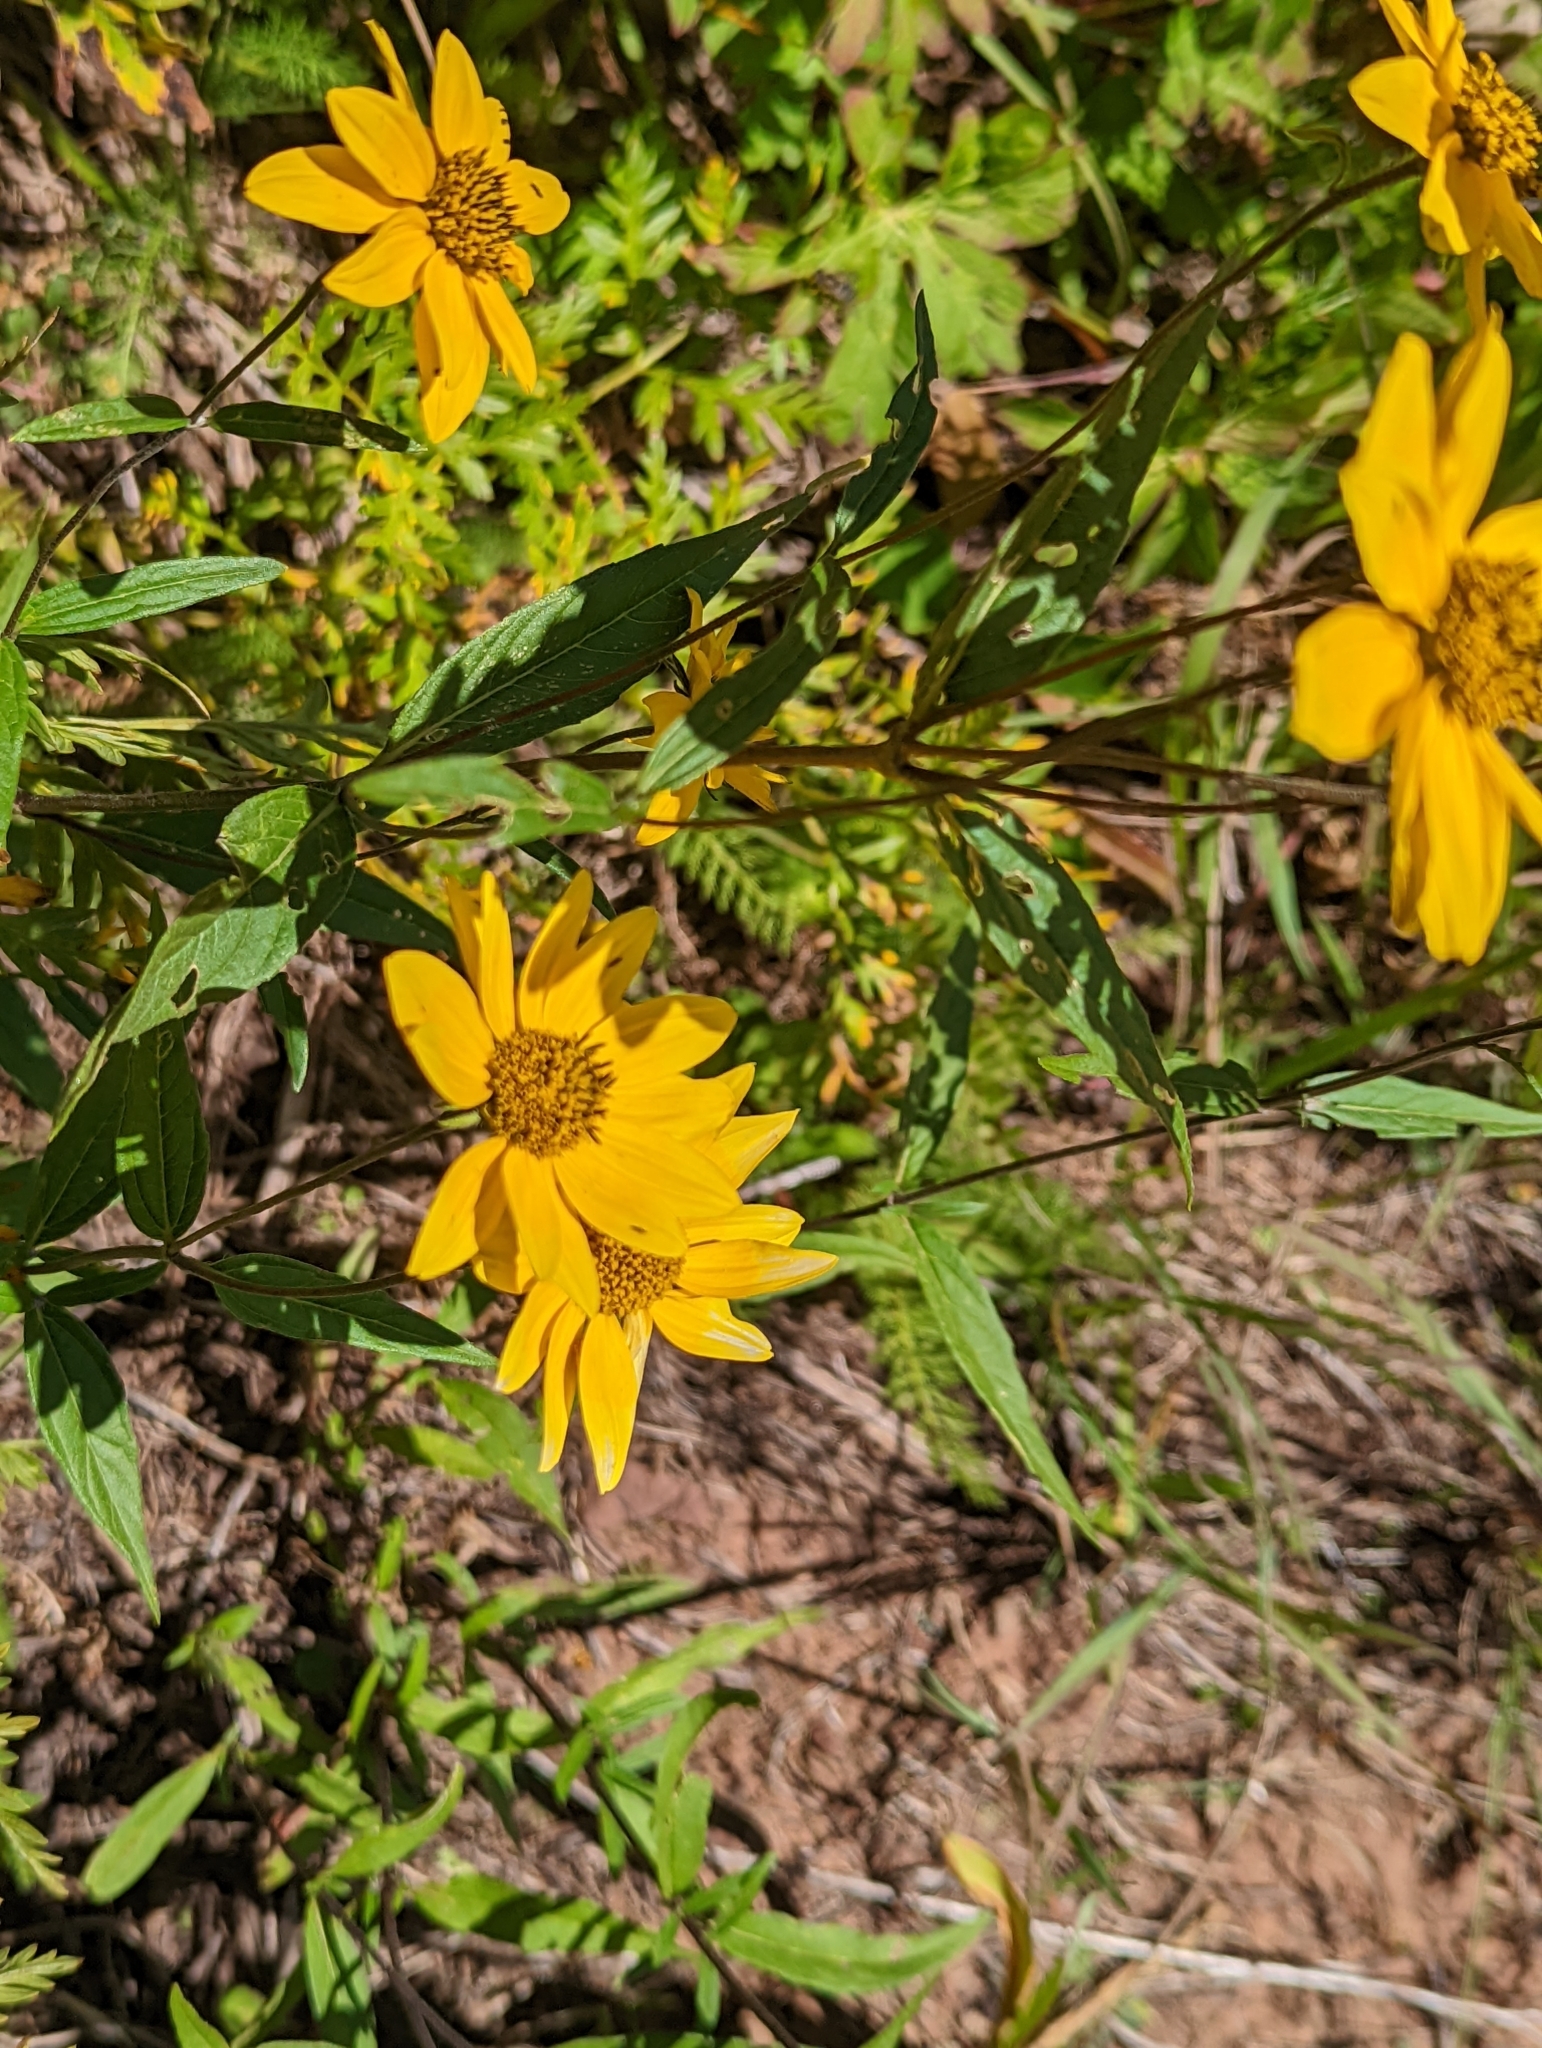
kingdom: Plantae
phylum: Tracheophyta
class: Magnoliopsida
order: Asterales
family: Asteraceae
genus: Heliomeris
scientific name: Heliomeris multiflora
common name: Showy goldeneye
